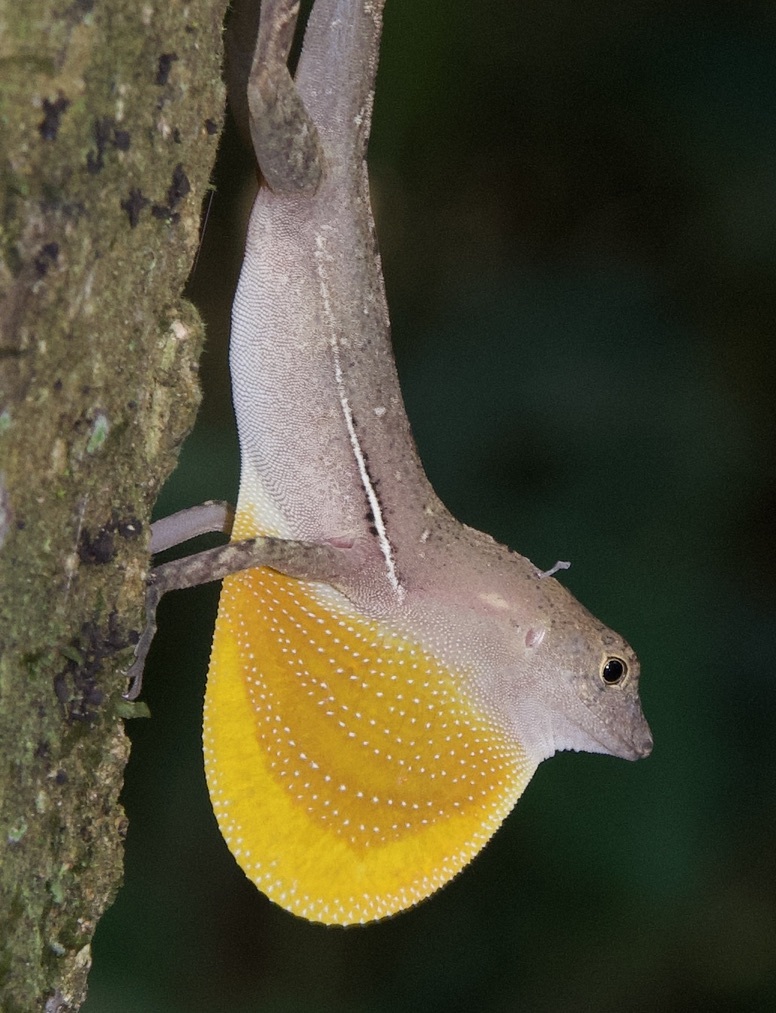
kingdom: Animalia
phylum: Chordata
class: Squamata
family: Dactyloidae
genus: Anolis
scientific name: Anolis osa
